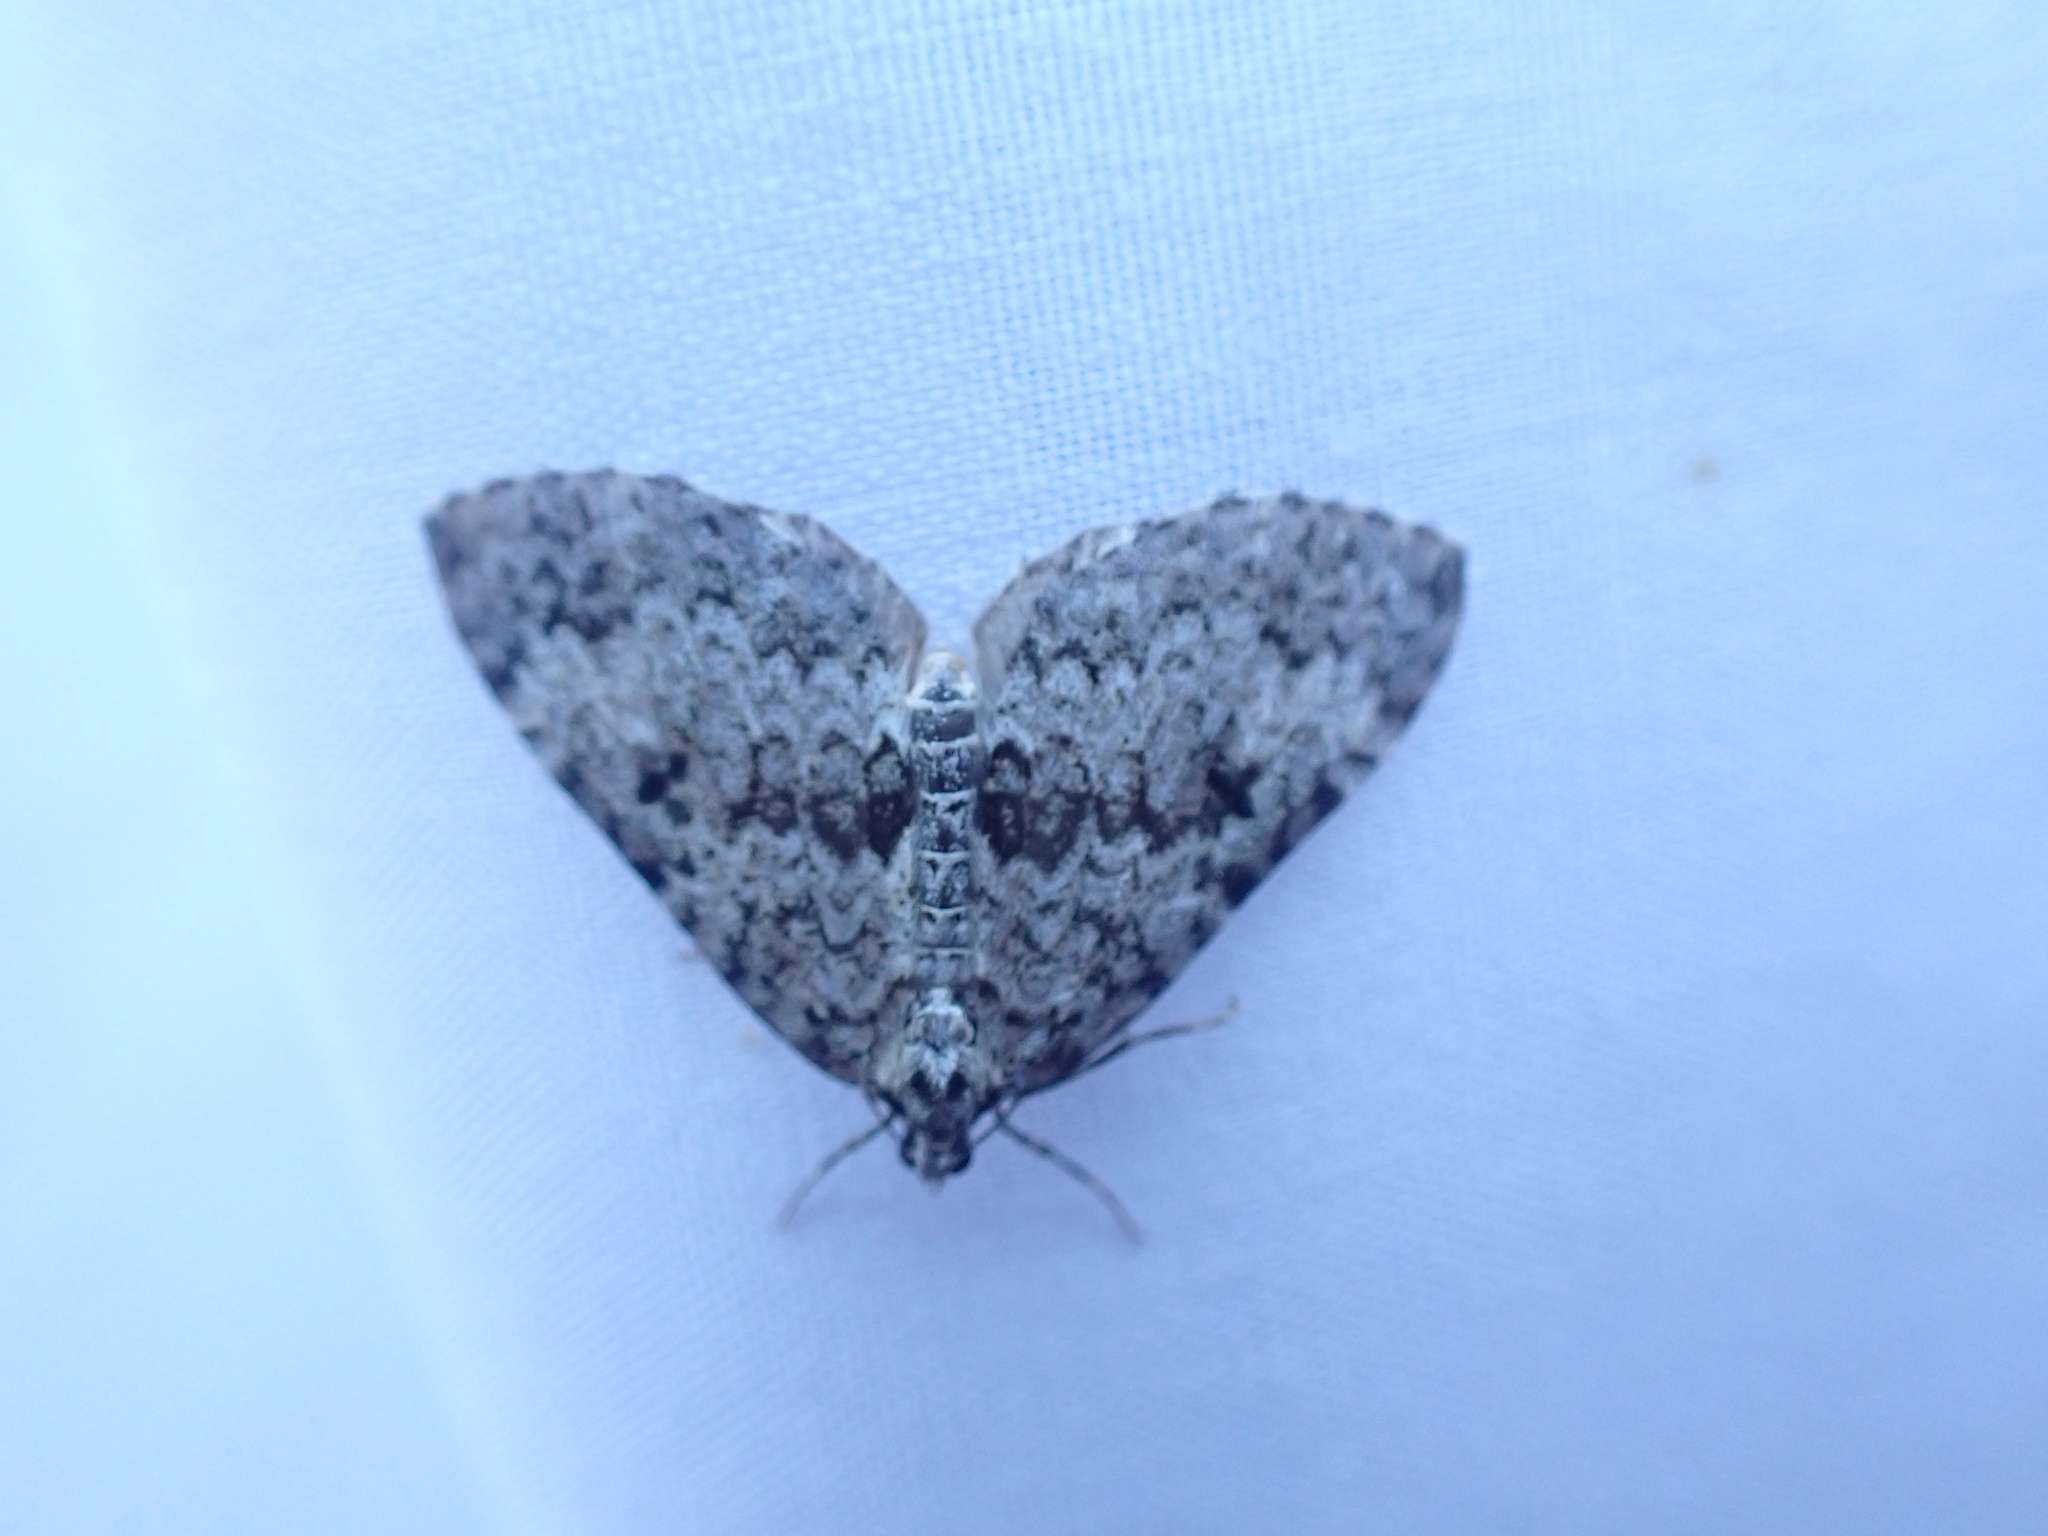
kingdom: Animalia
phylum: Arthropoda
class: Insecta
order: Lepidoptera
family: Geometridae
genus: Spargania
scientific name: Spargania magnoliata
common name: Double-banded carpet
